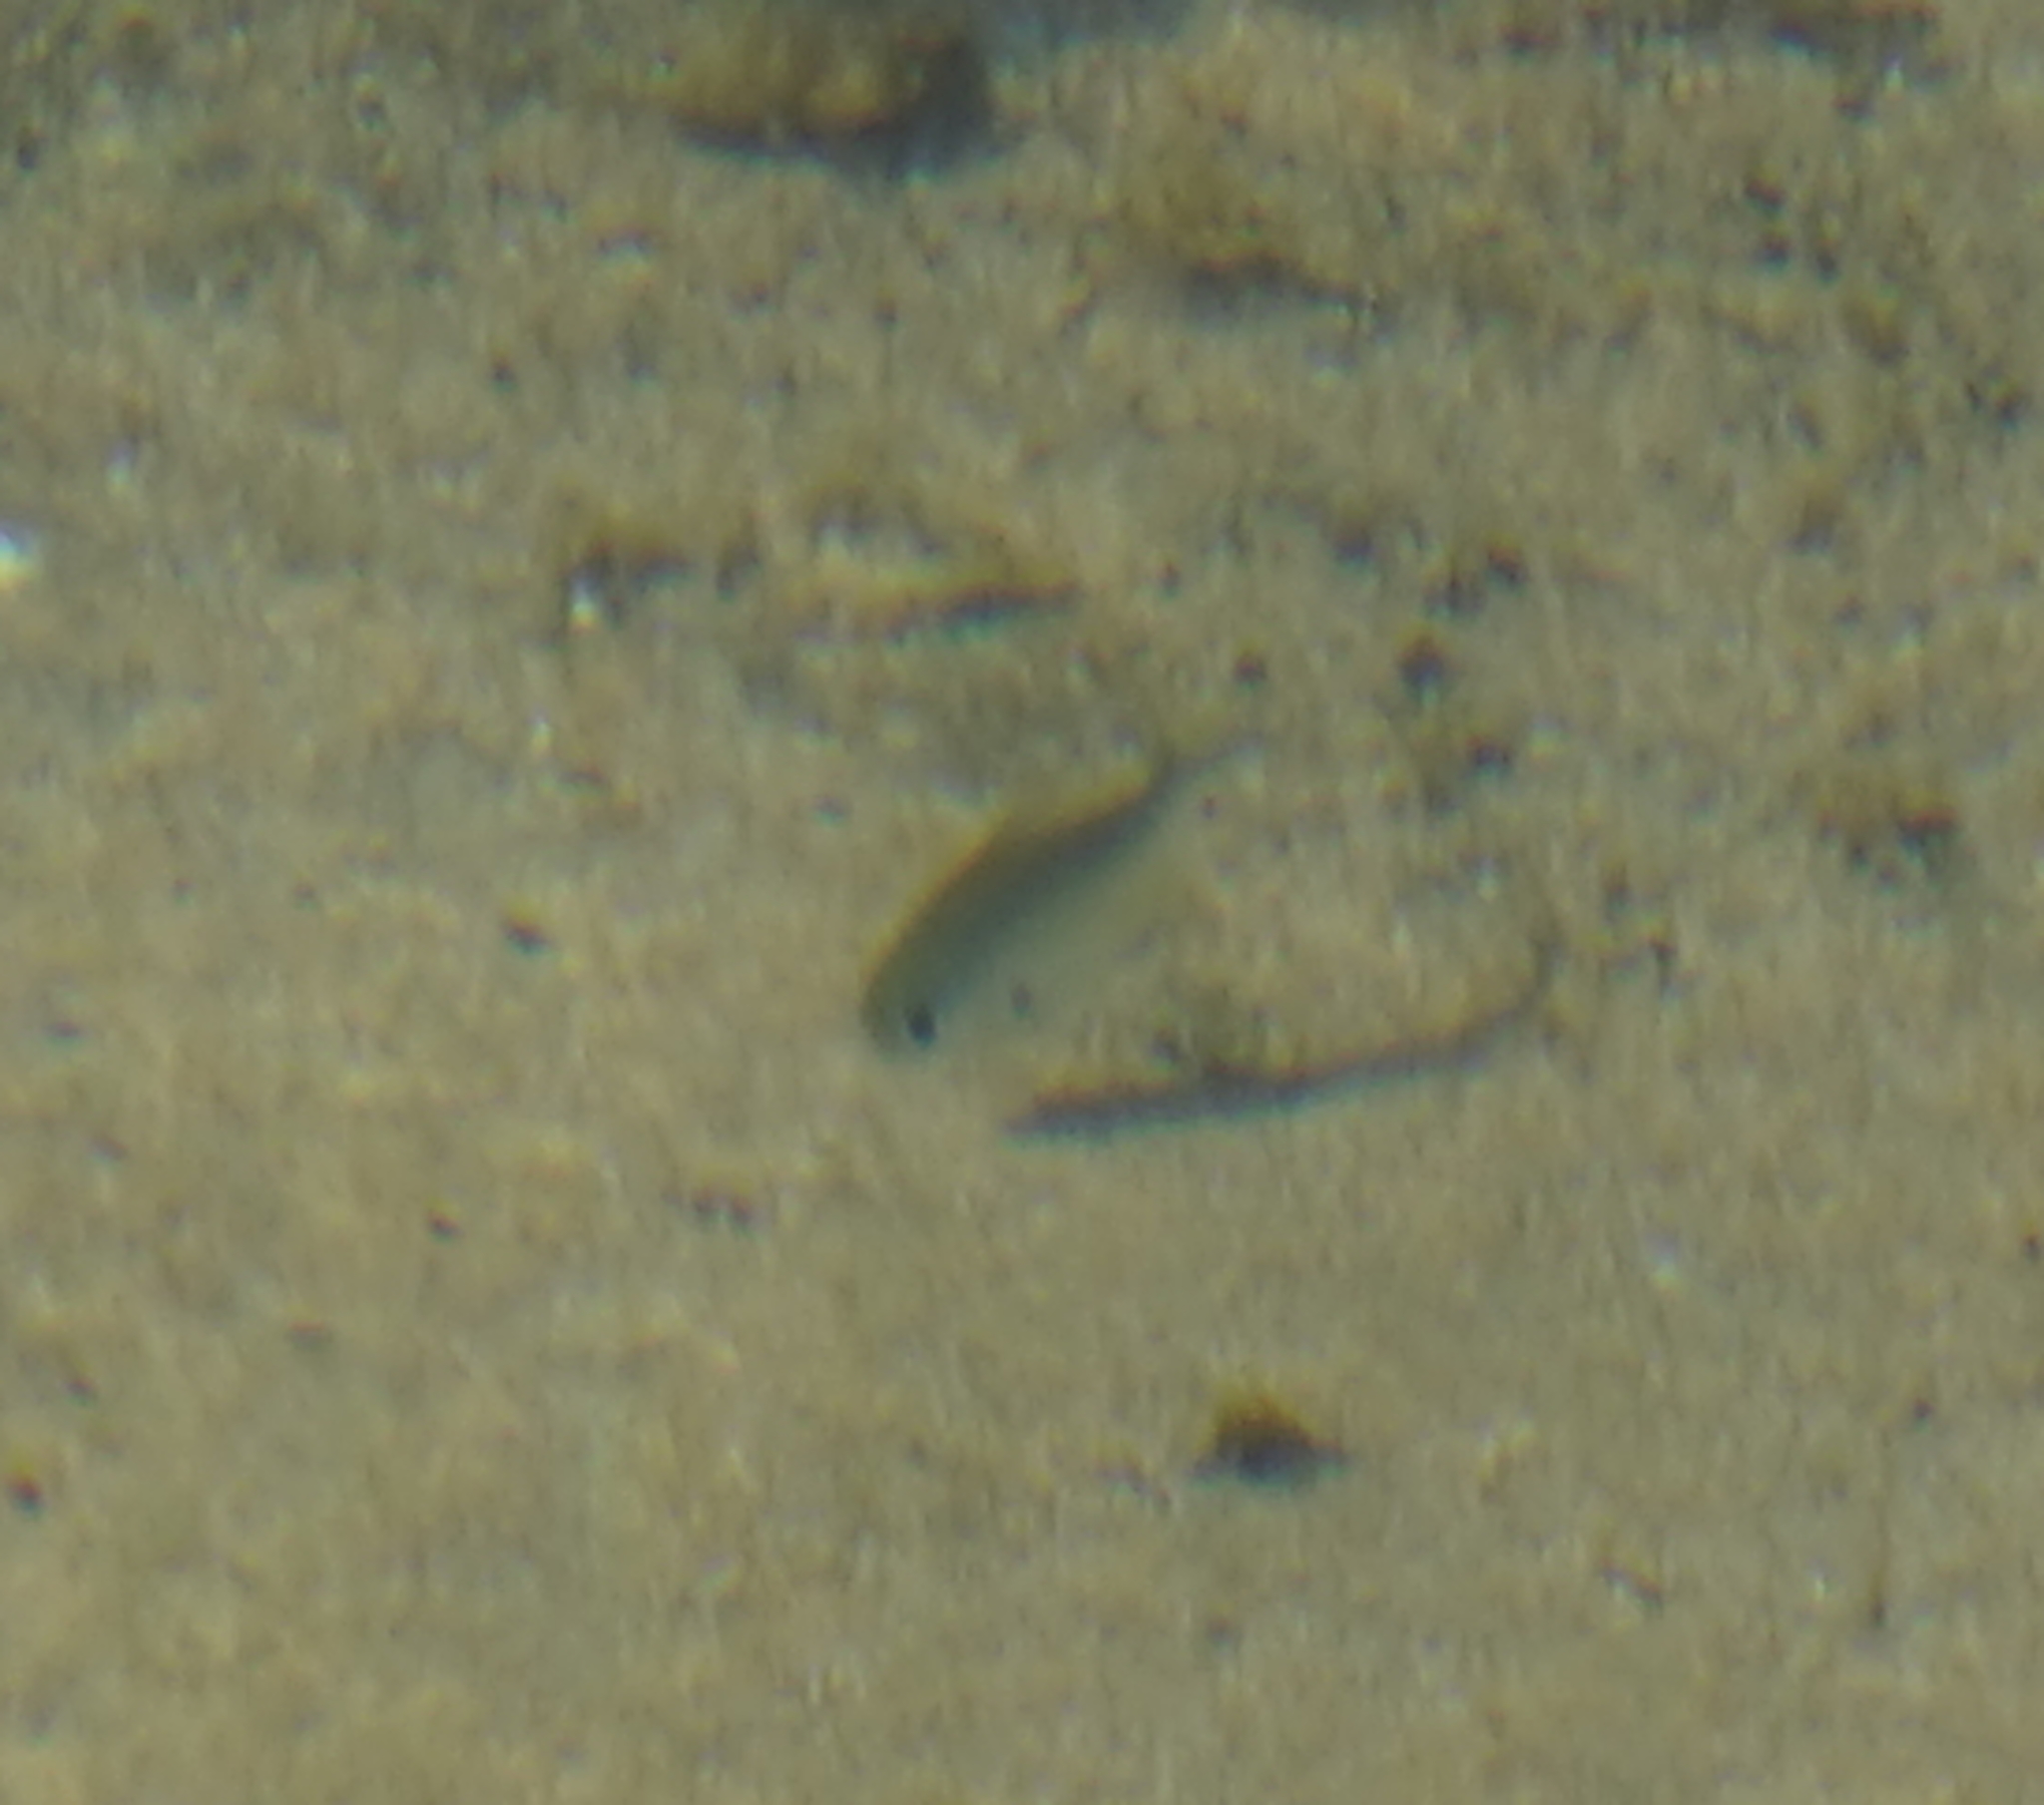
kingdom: Animalia
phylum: Chordata
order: Perciformes
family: Kyphosidae
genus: Scorpis
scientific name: Scorpis lineolata
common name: Sweep
